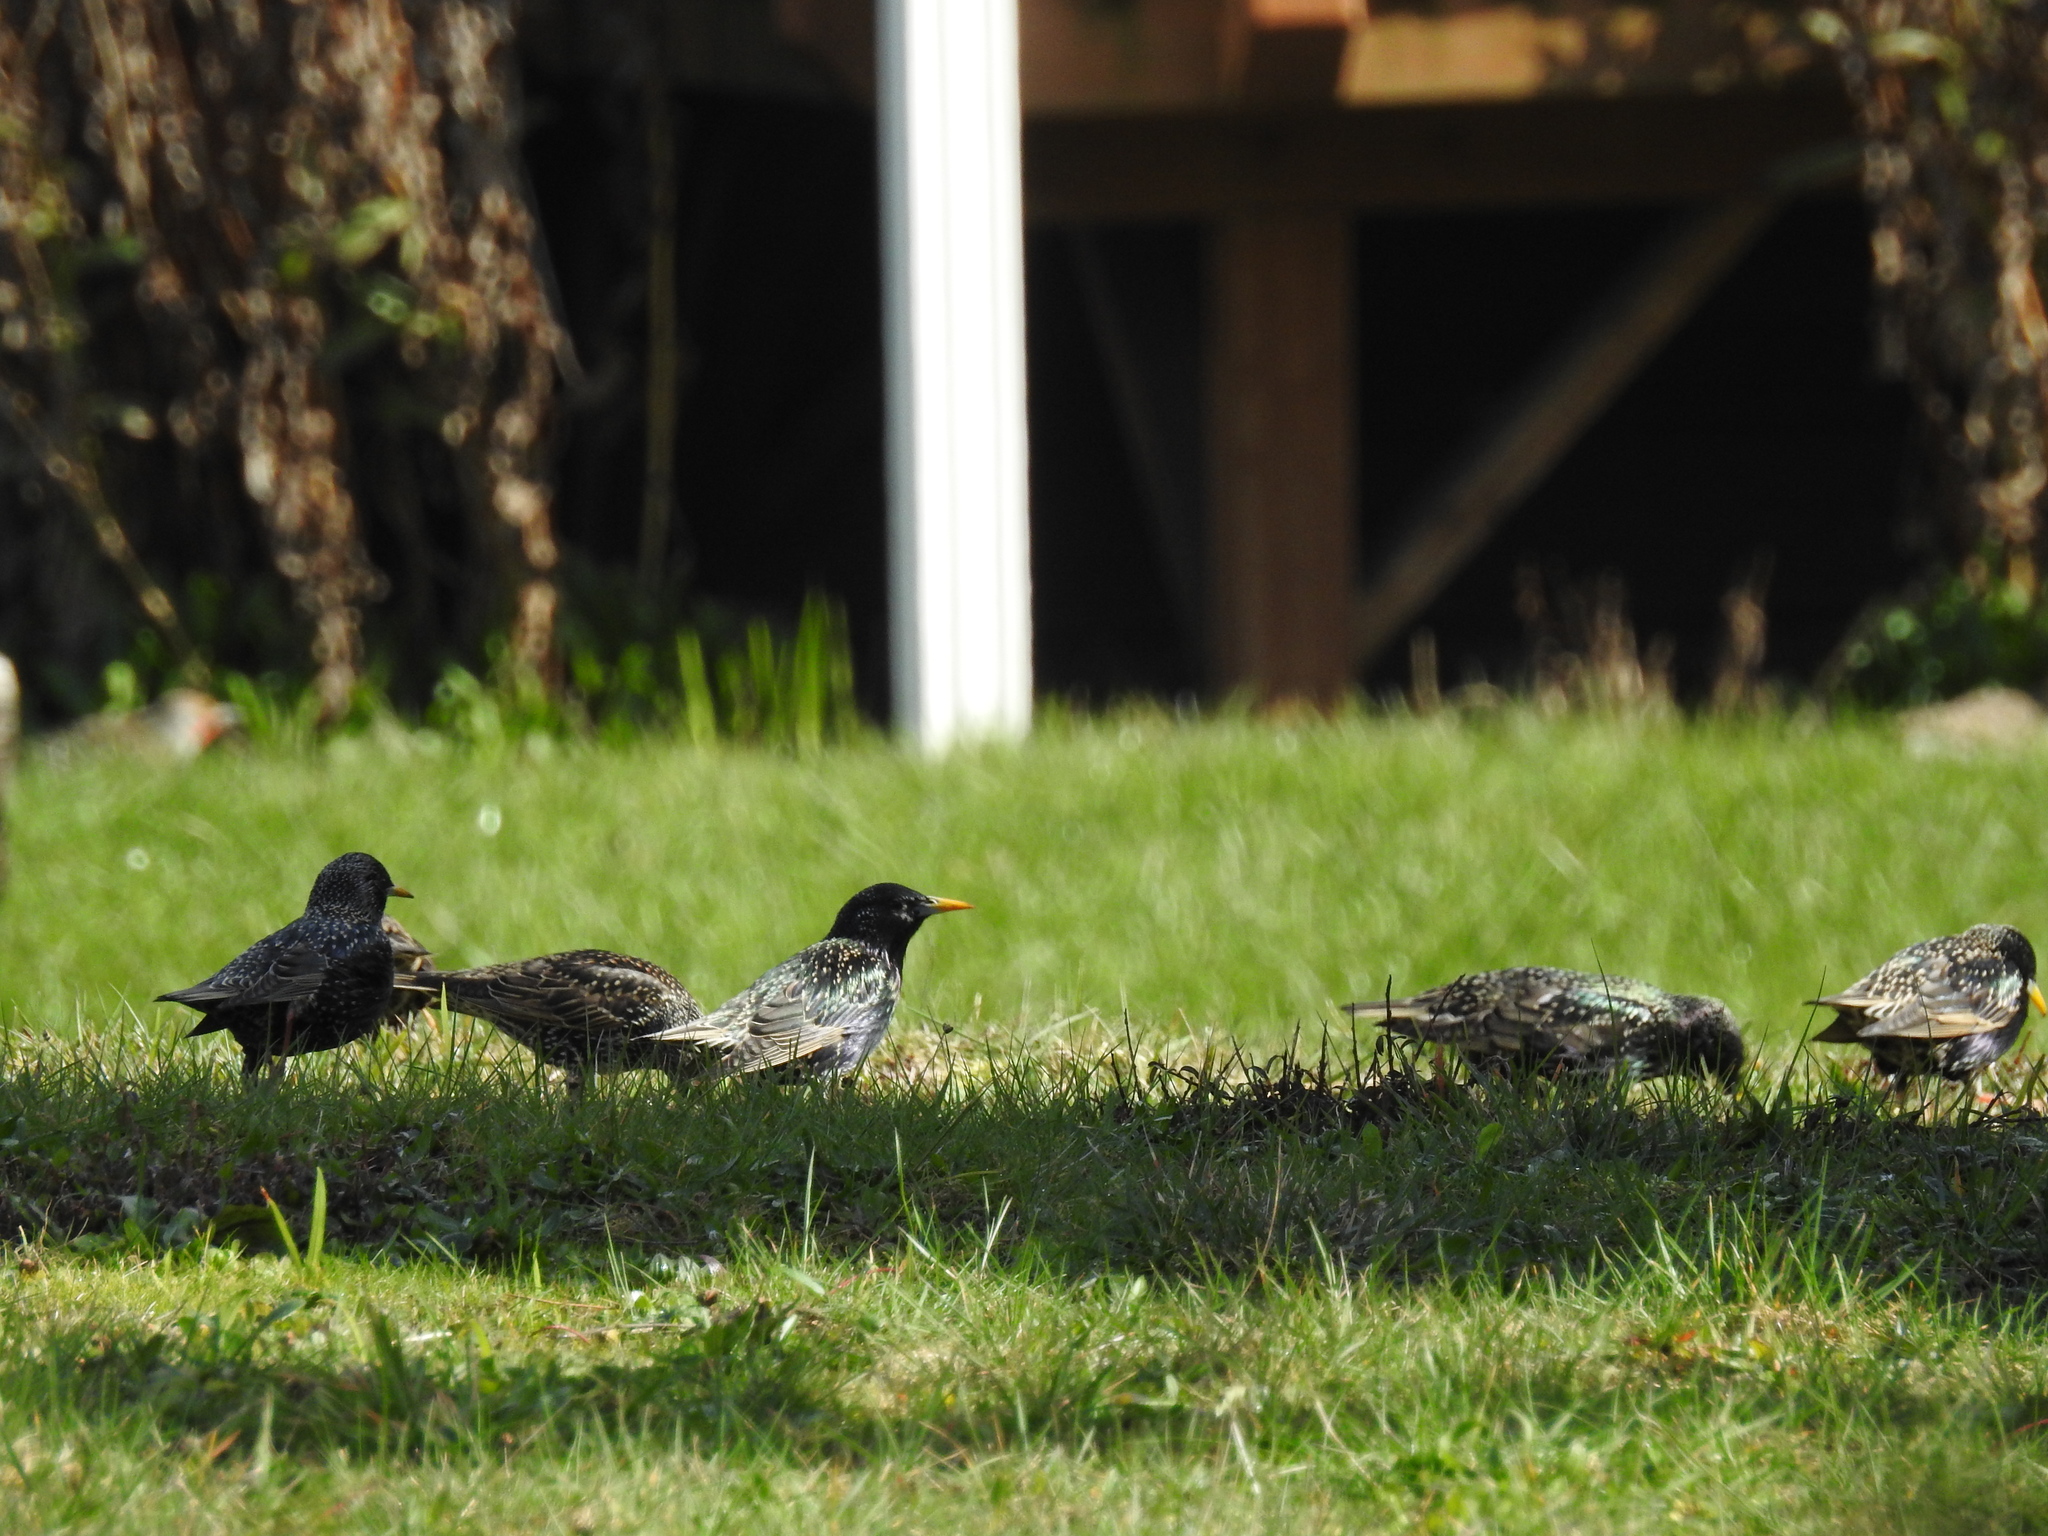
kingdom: Animalia
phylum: Chordata
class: Aves
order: Passeriformes
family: Sturnidae
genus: Sturnus
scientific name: Sturnus vulgaris
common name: Common starling
